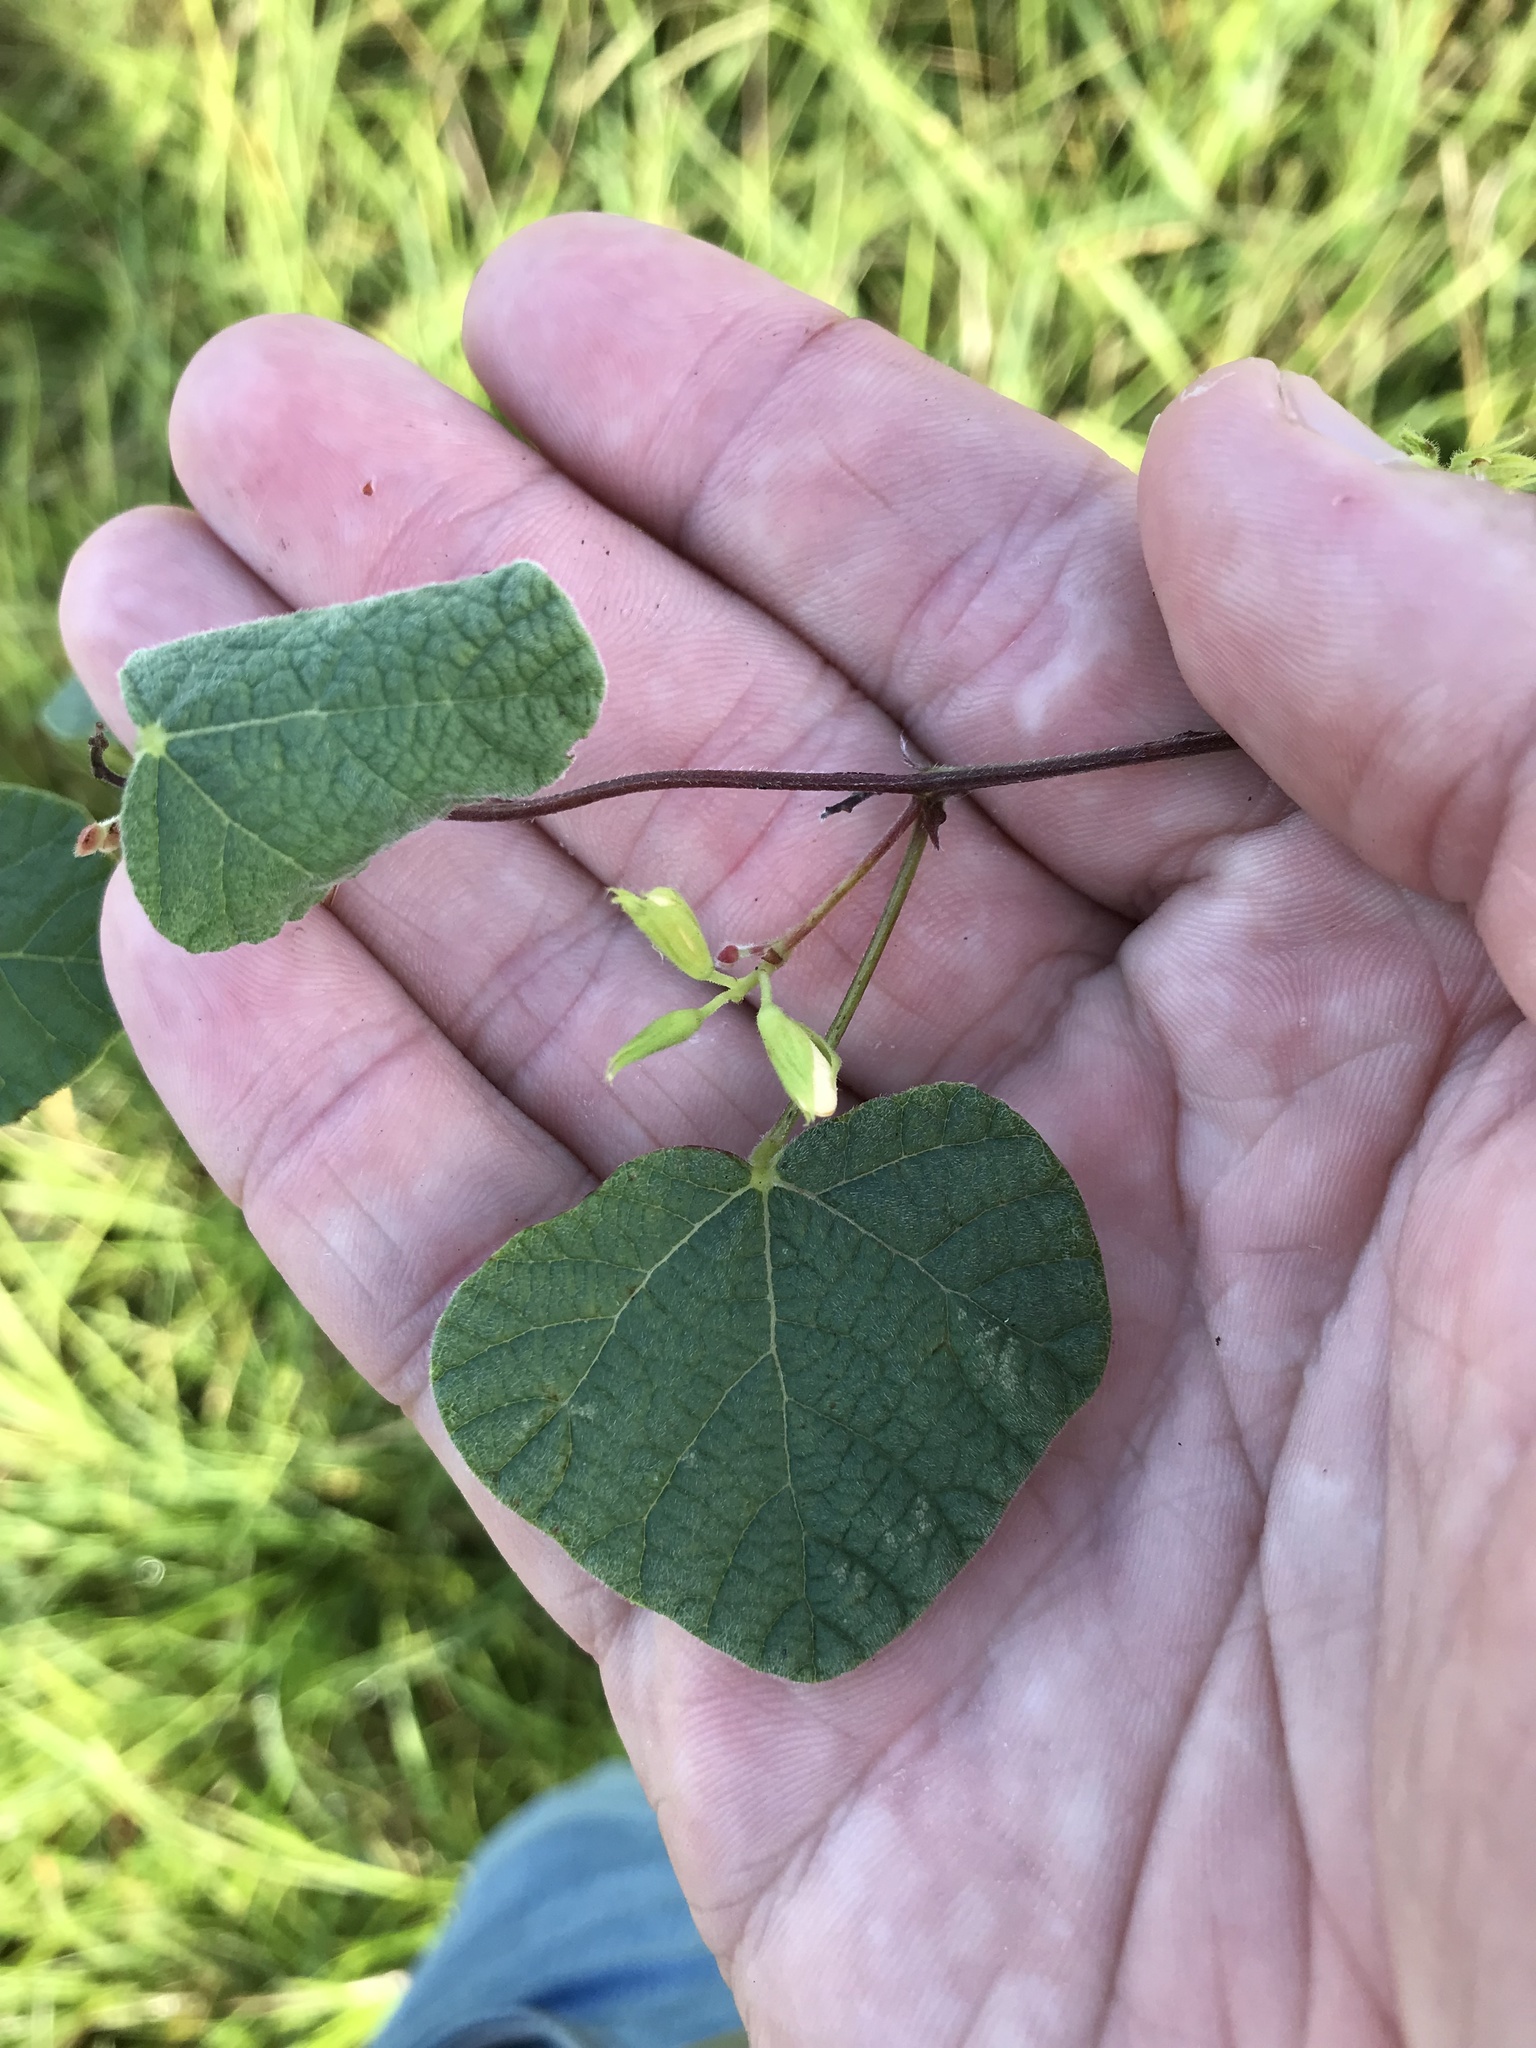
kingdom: Plantae
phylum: Tracheophyta
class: Magnoliopsida
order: Fabales
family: Fabaceae
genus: Rhynchosia
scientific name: Rhynchosia americana
